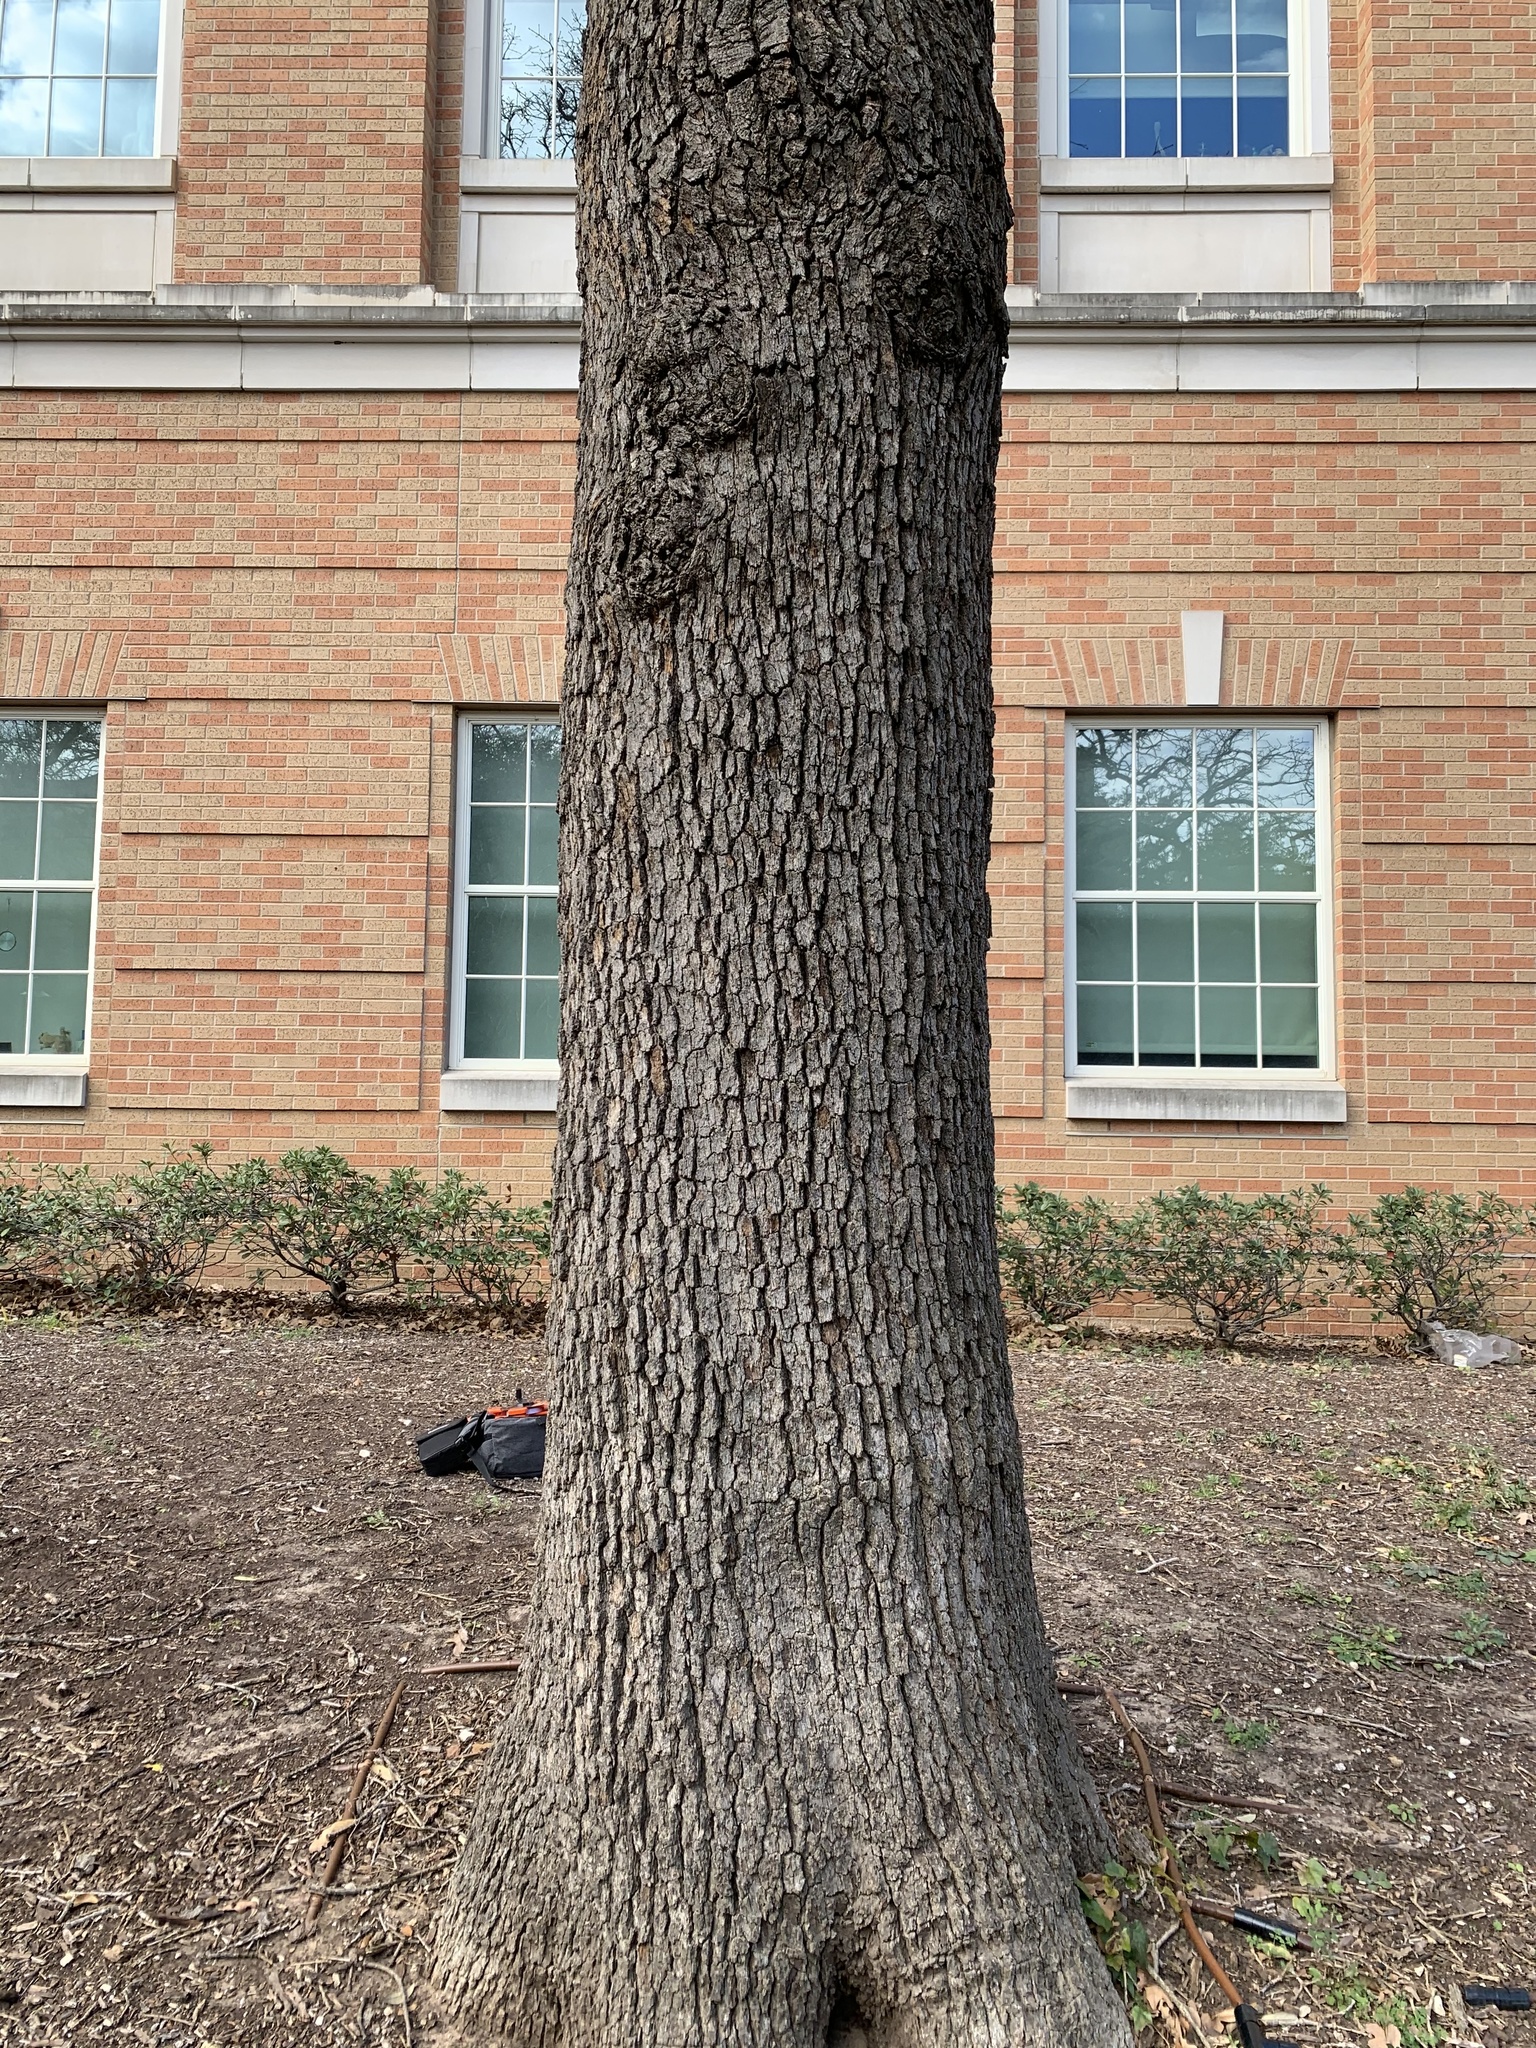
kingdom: Plantae
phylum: Tracheophyta
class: Magnoliopsida
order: Fagales
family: Fagaceae
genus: Quercus
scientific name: Quercus stellata
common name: Post oak
